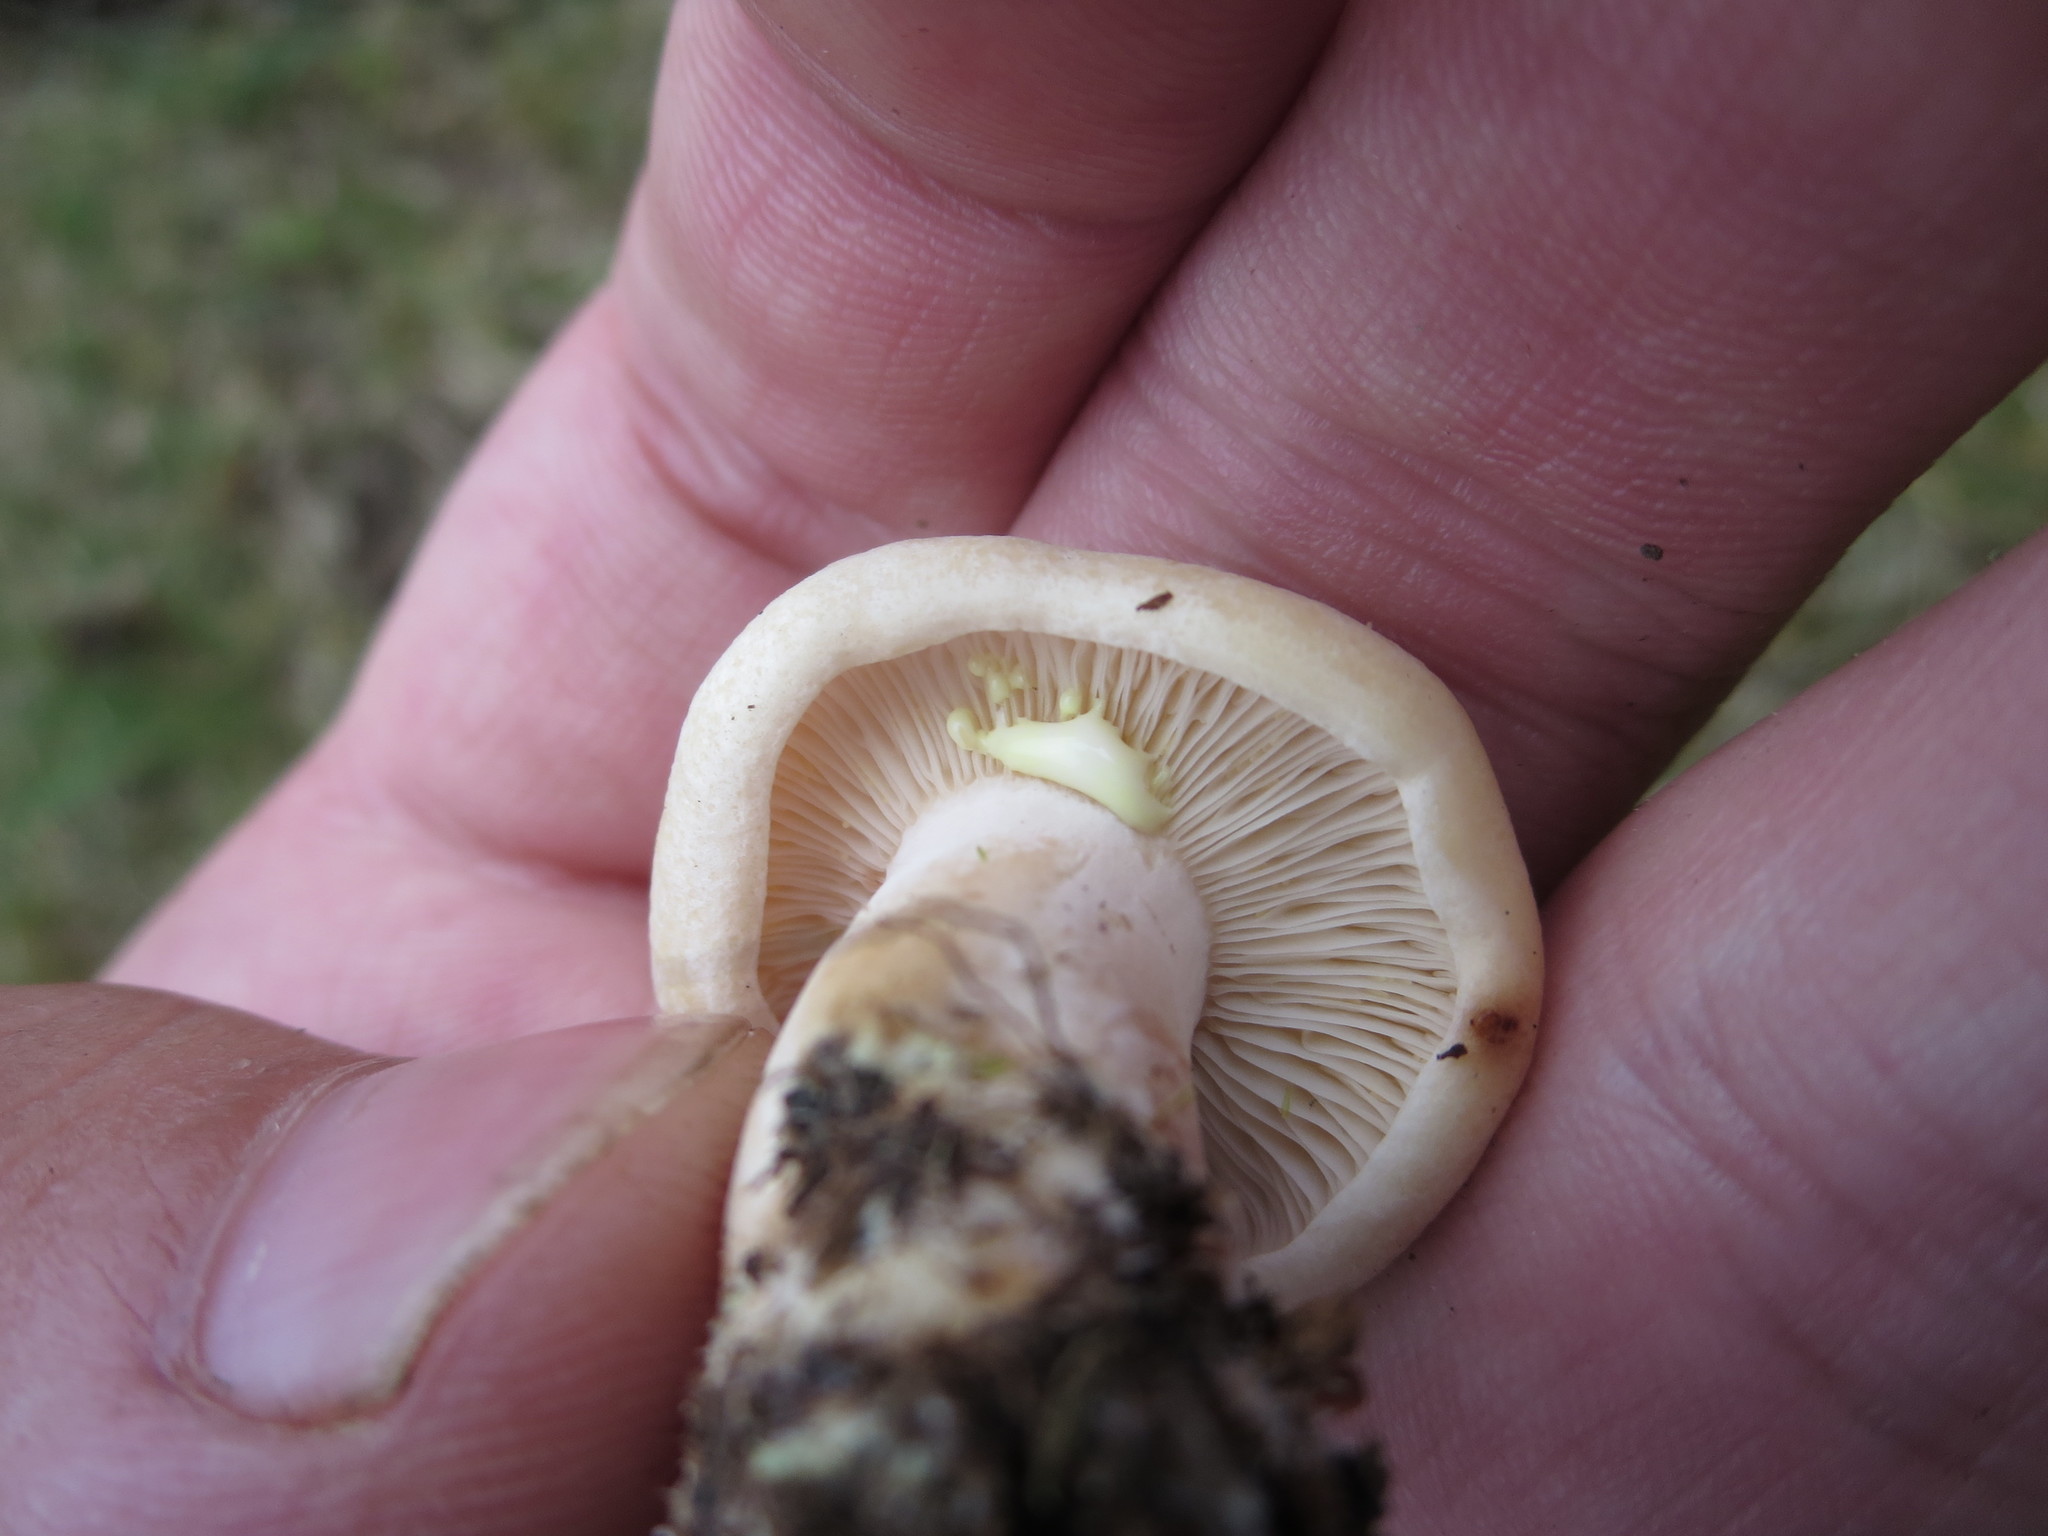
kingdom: Fungi
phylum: Basidiomycota
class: Agaricomycetes
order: Russulales
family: Russulaceae
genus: Lactarius
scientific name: Lactarius chrysorrheus
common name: Yellowdrop milkcap
